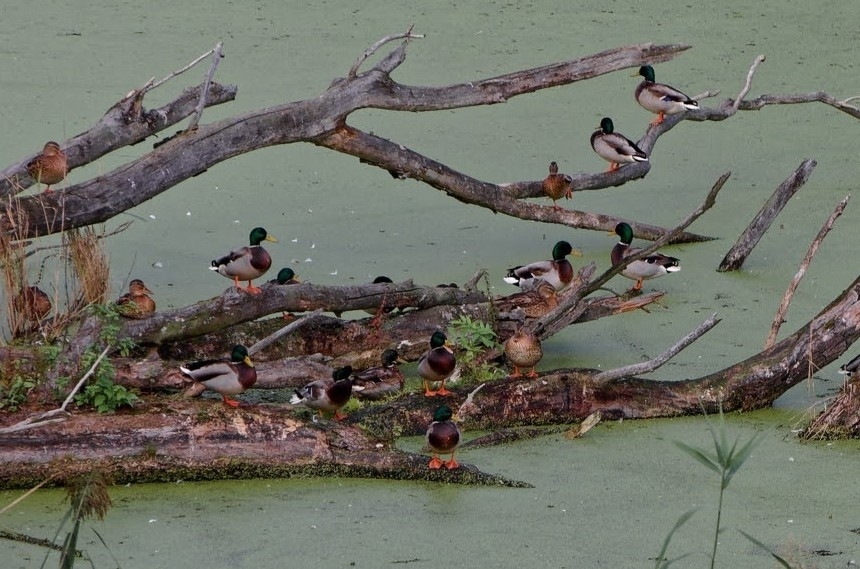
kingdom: Animalia
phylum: Chordata
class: Aves
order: Anseriformes
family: Anatidae
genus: Anas
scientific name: Anas platyrhynchos
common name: Mallard
